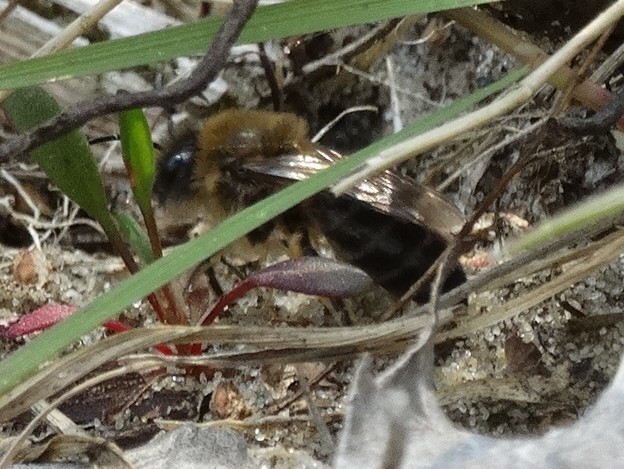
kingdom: Animalia
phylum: Arthropoda
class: Insecta
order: Hymenoptera
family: Colletidae
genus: Colletes
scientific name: Colletes cunicularius
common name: Early colletes
